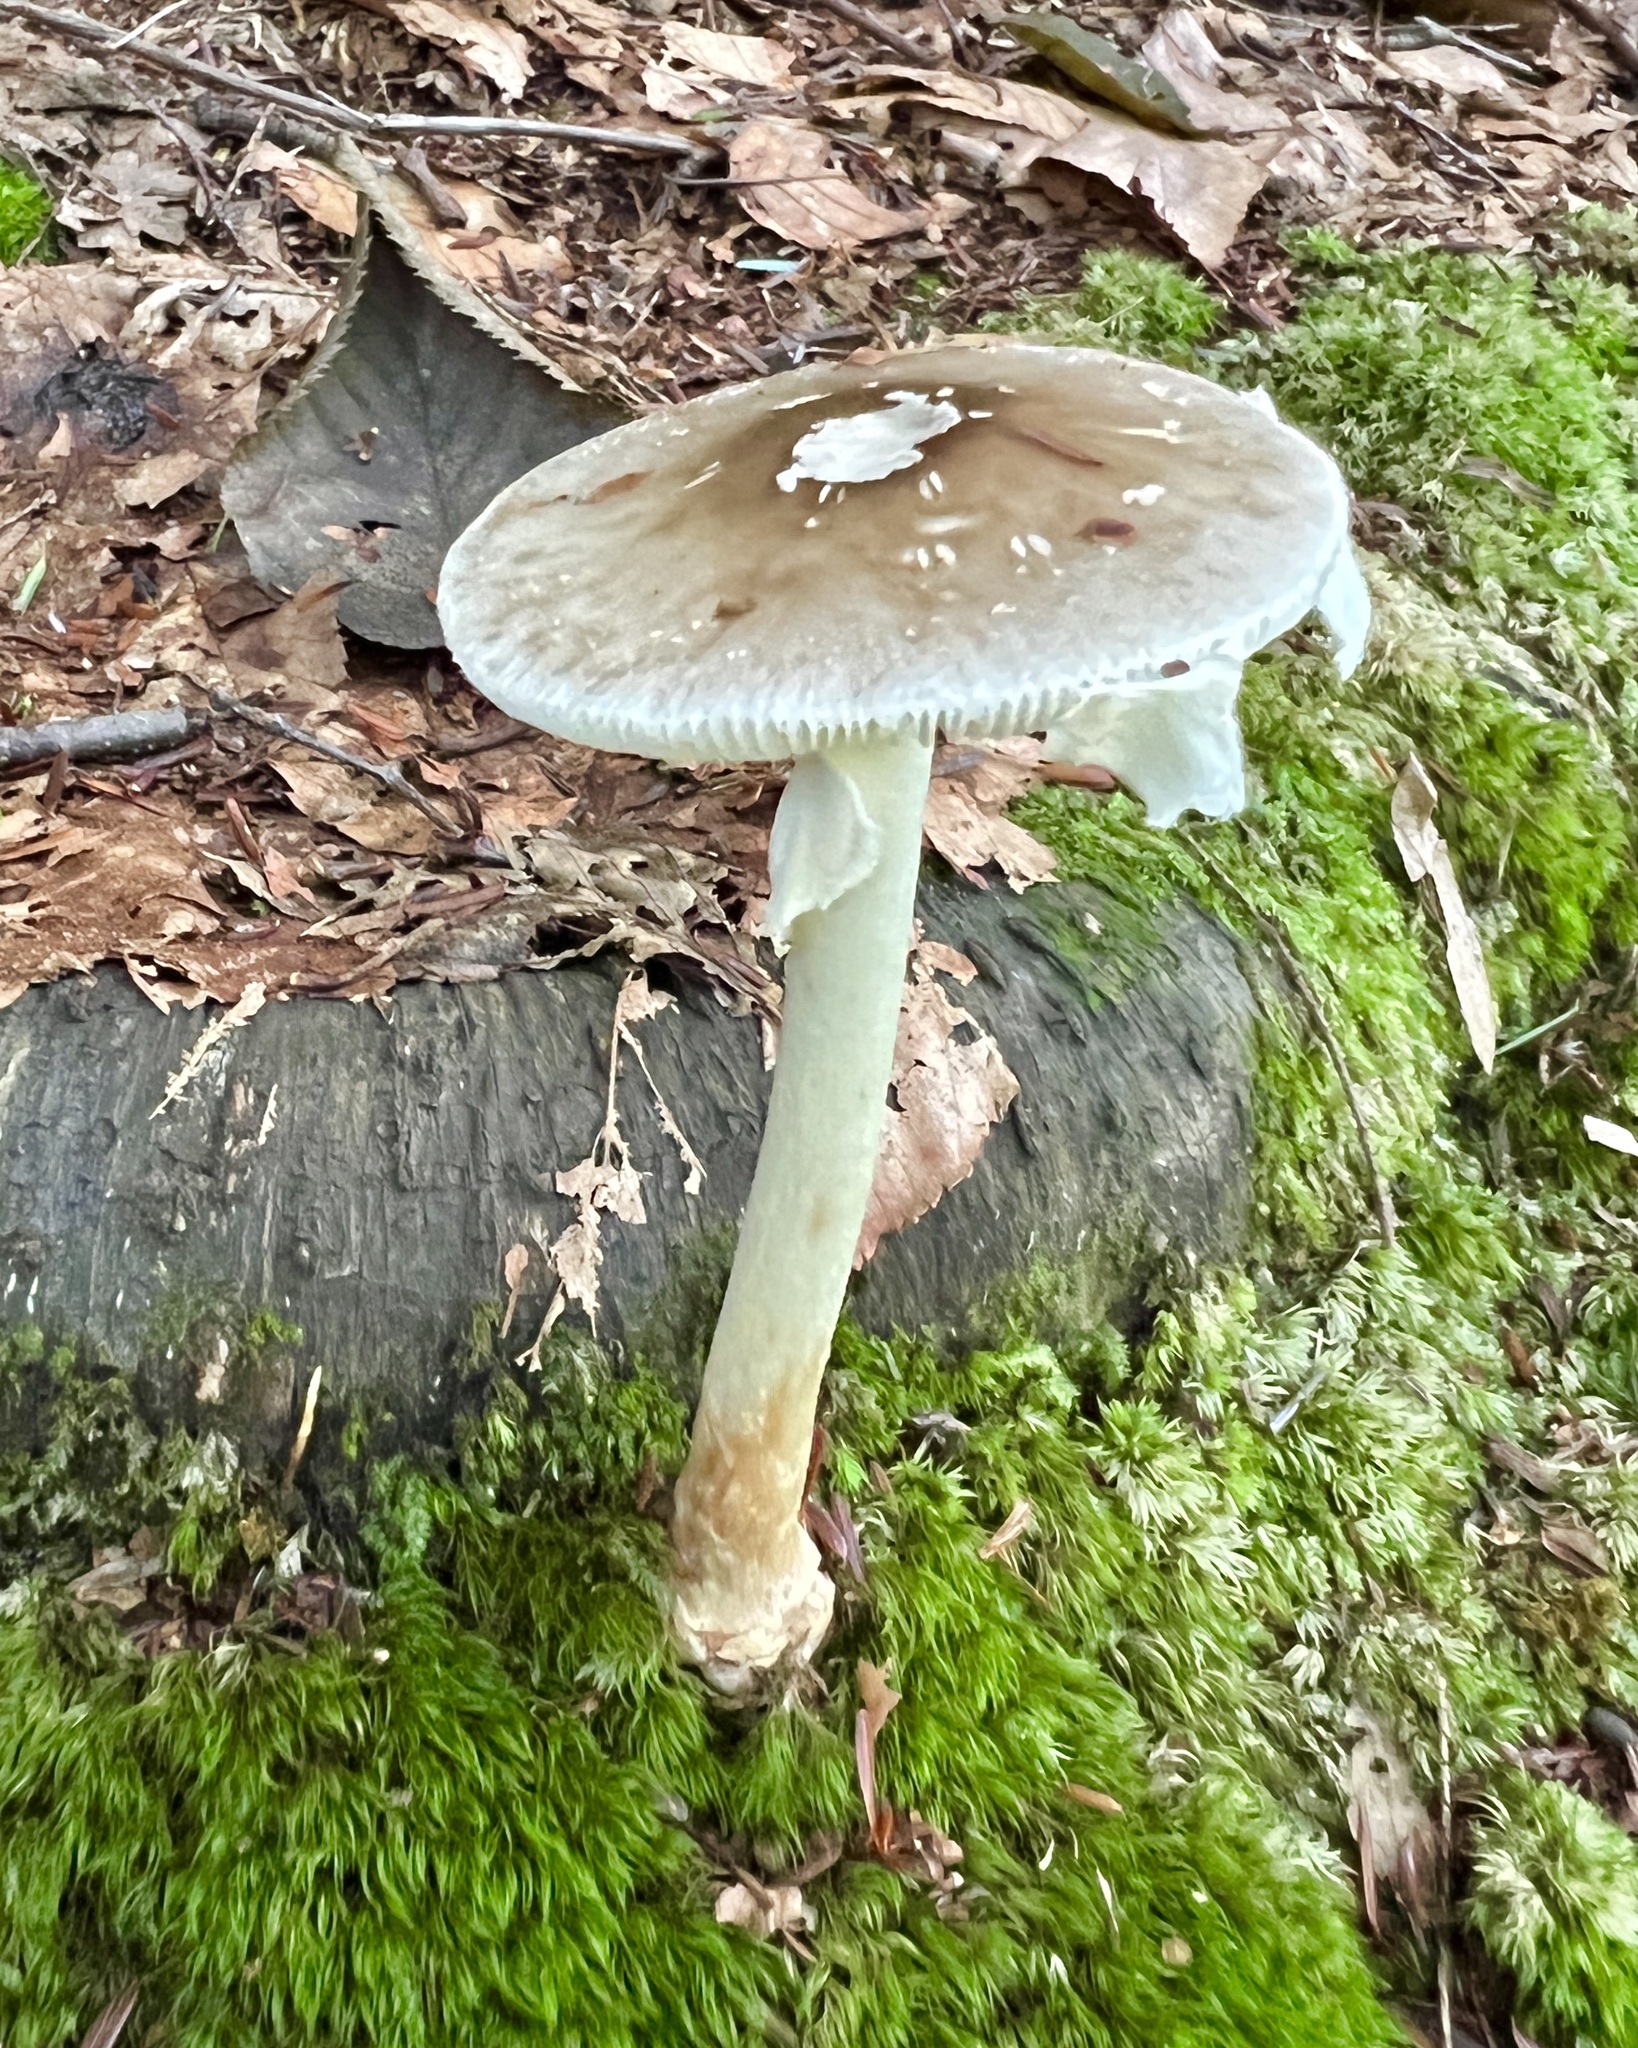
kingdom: Fungi
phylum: Basidiomycota
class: Agaricomycetes
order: Agaricales
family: Amanitaceae
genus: Amanita
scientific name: Amanita brunnescens
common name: Brown american star-footed amanita
